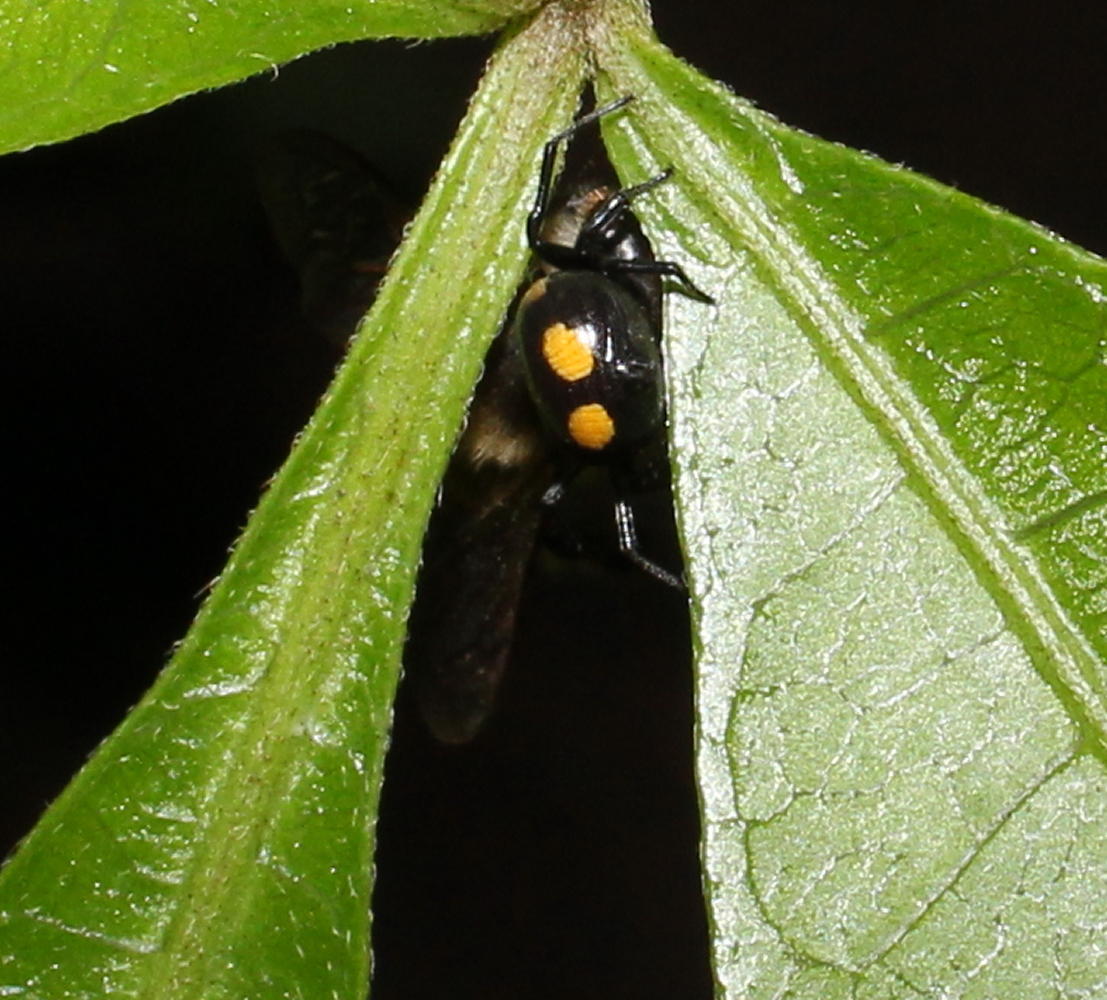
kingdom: Animalia
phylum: Arthropoda
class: Arachnida
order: Araneae
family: Thomisidae
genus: Mystaria
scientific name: Mystaria flavoguttata
